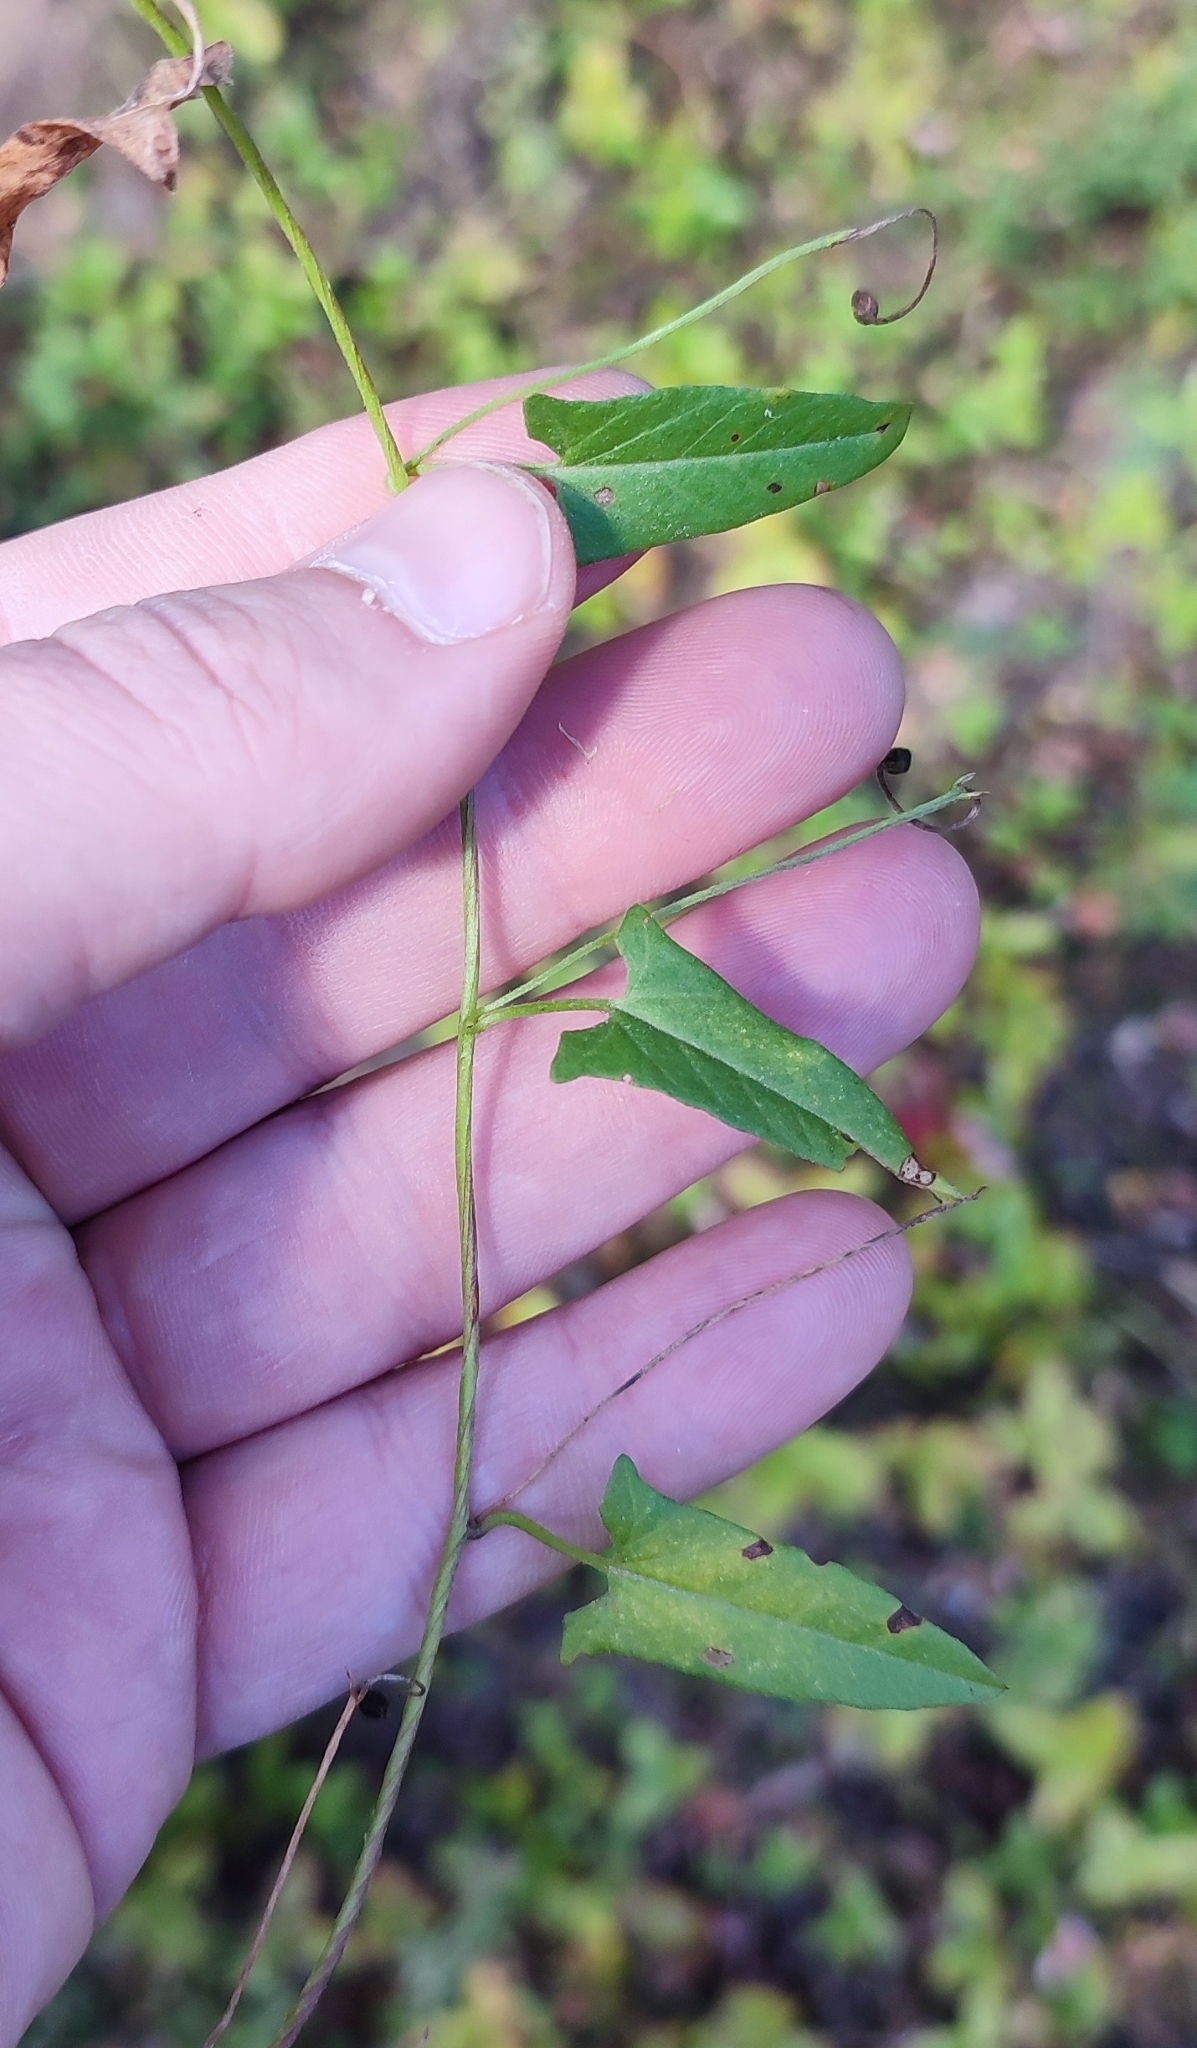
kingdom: Plantae
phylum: Tracheophyta
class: Magnoliopsida
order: Solanales
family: Convolvulaceae
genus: Convolvulus
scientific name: Convolvulus arvensis
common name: Field bindweed
